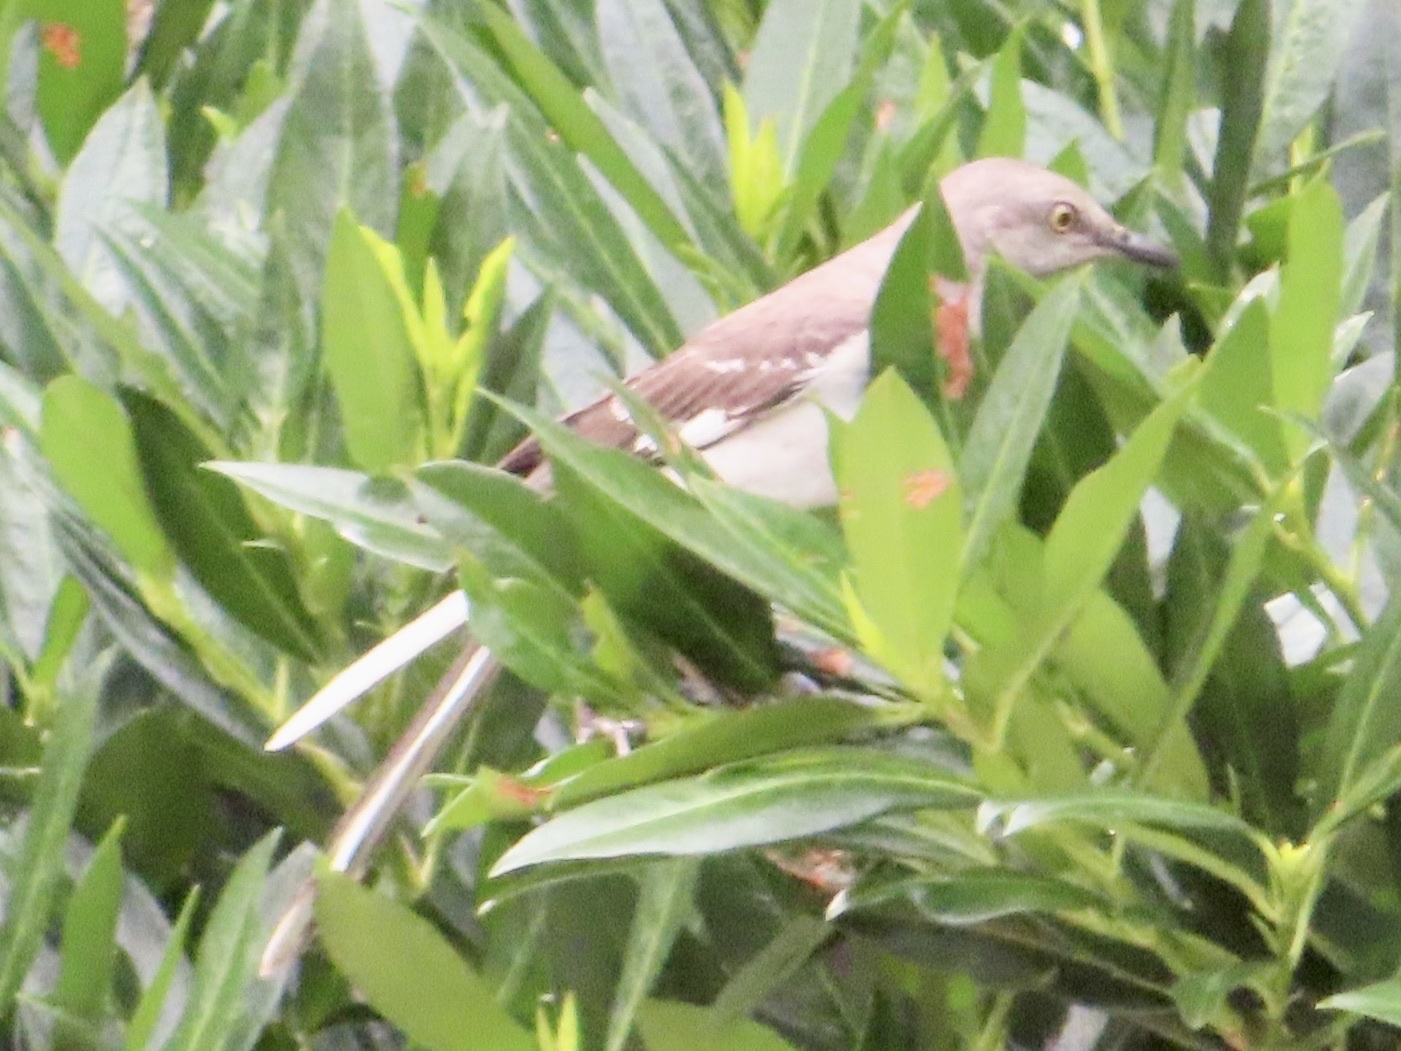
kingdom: Animalia
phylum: Chordata
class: Aves
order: Passeriformes
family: Mimidae
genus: Mimus
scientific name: Mimus polyglottos
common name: Northern mockingbird
